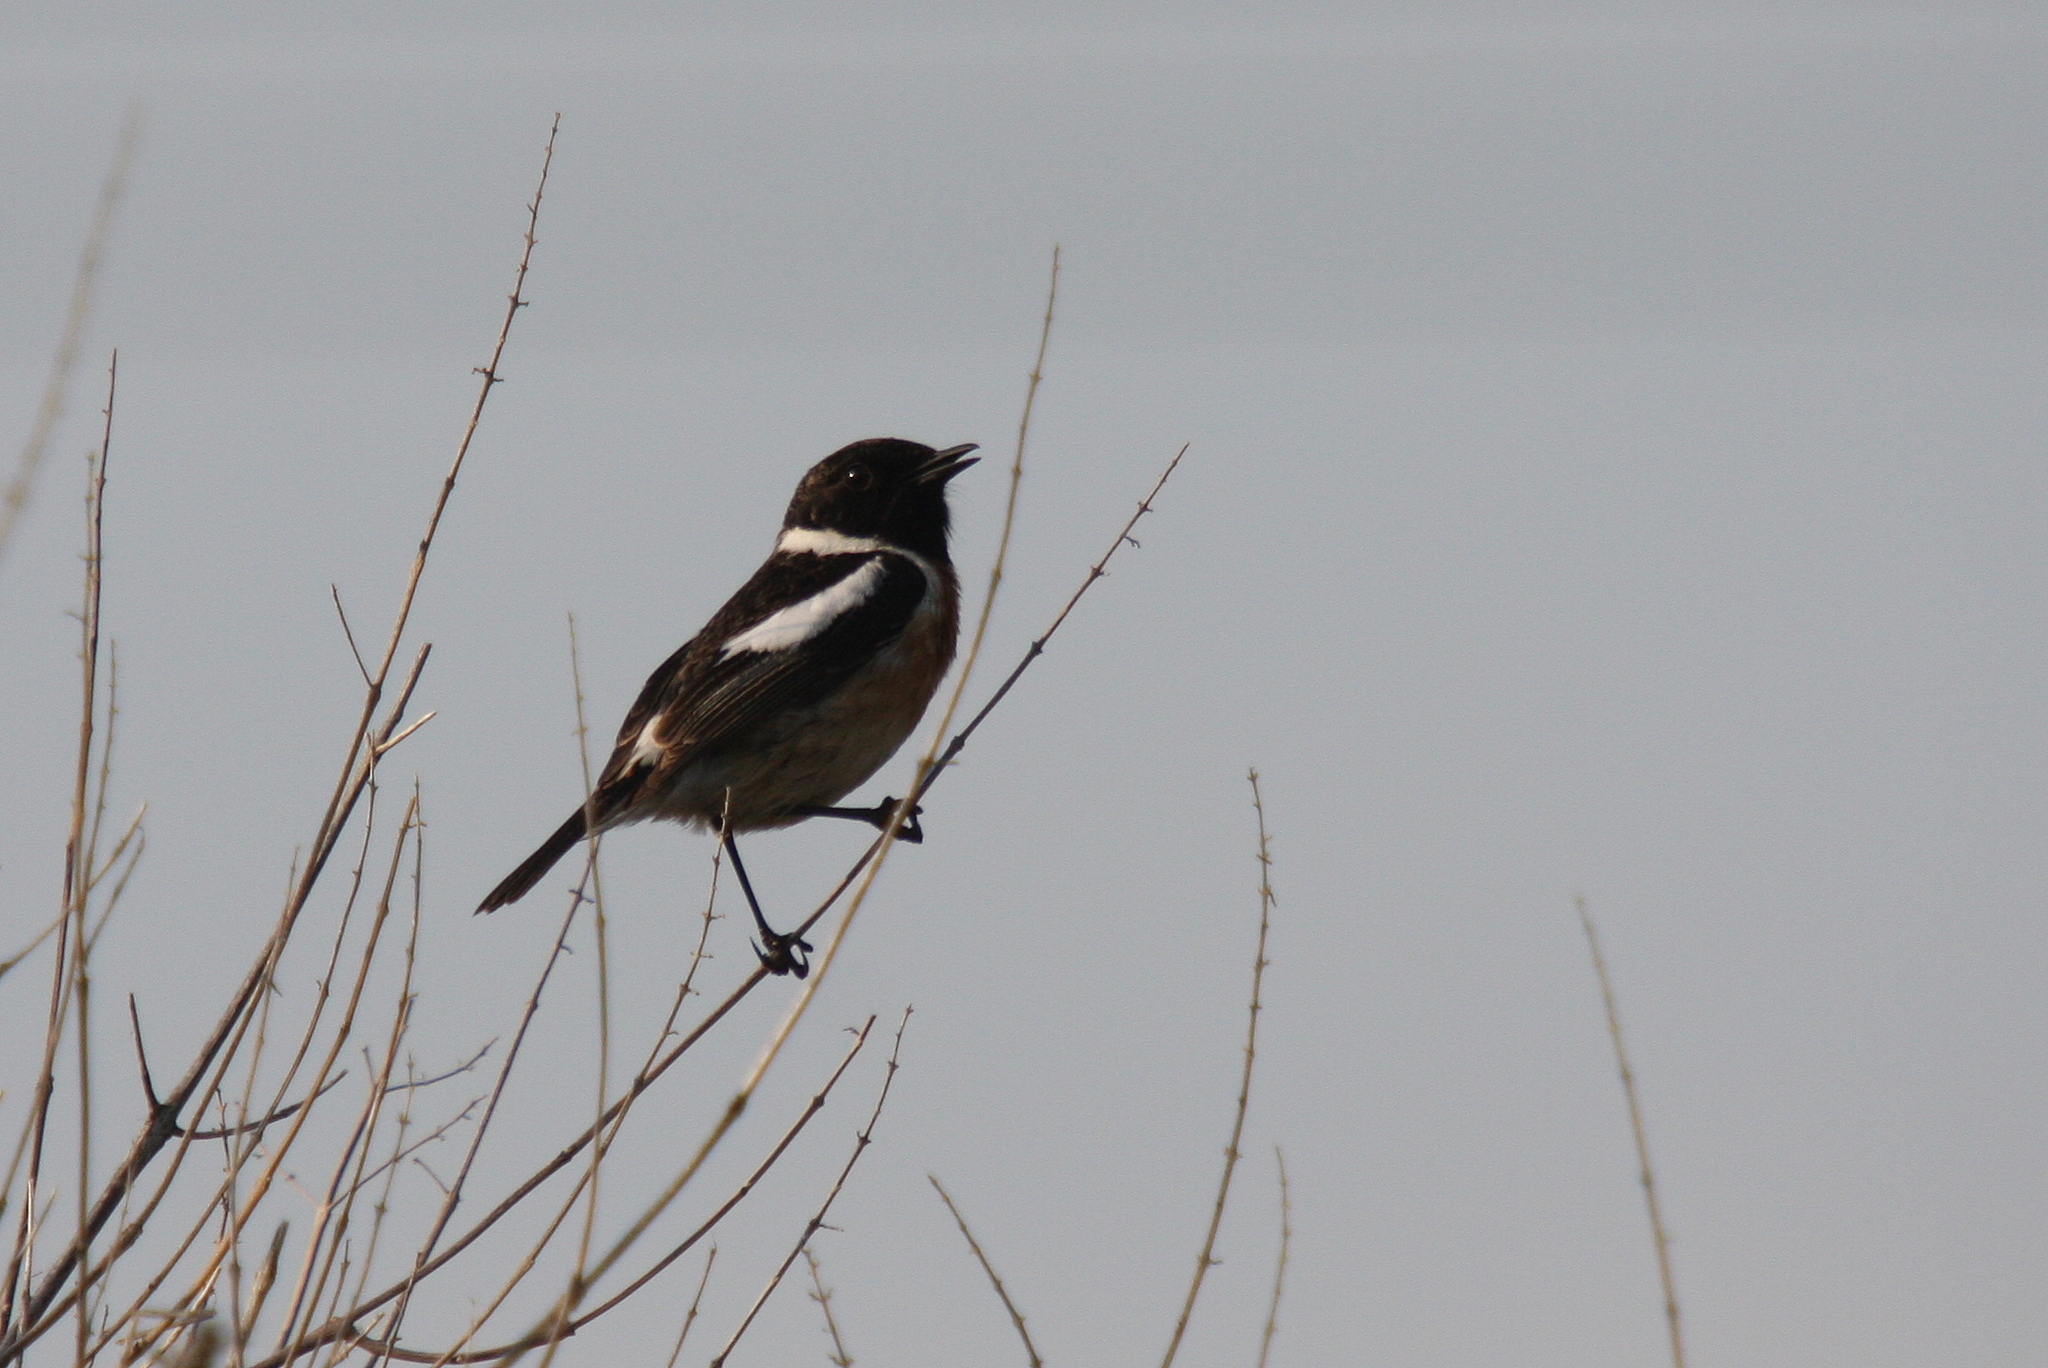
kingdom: Animalia
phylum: Chordata
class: Aves
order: Passeriformes
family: Muscicapidae
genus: Saxicola
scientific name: Saxicola rubicola
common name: European stonechat
